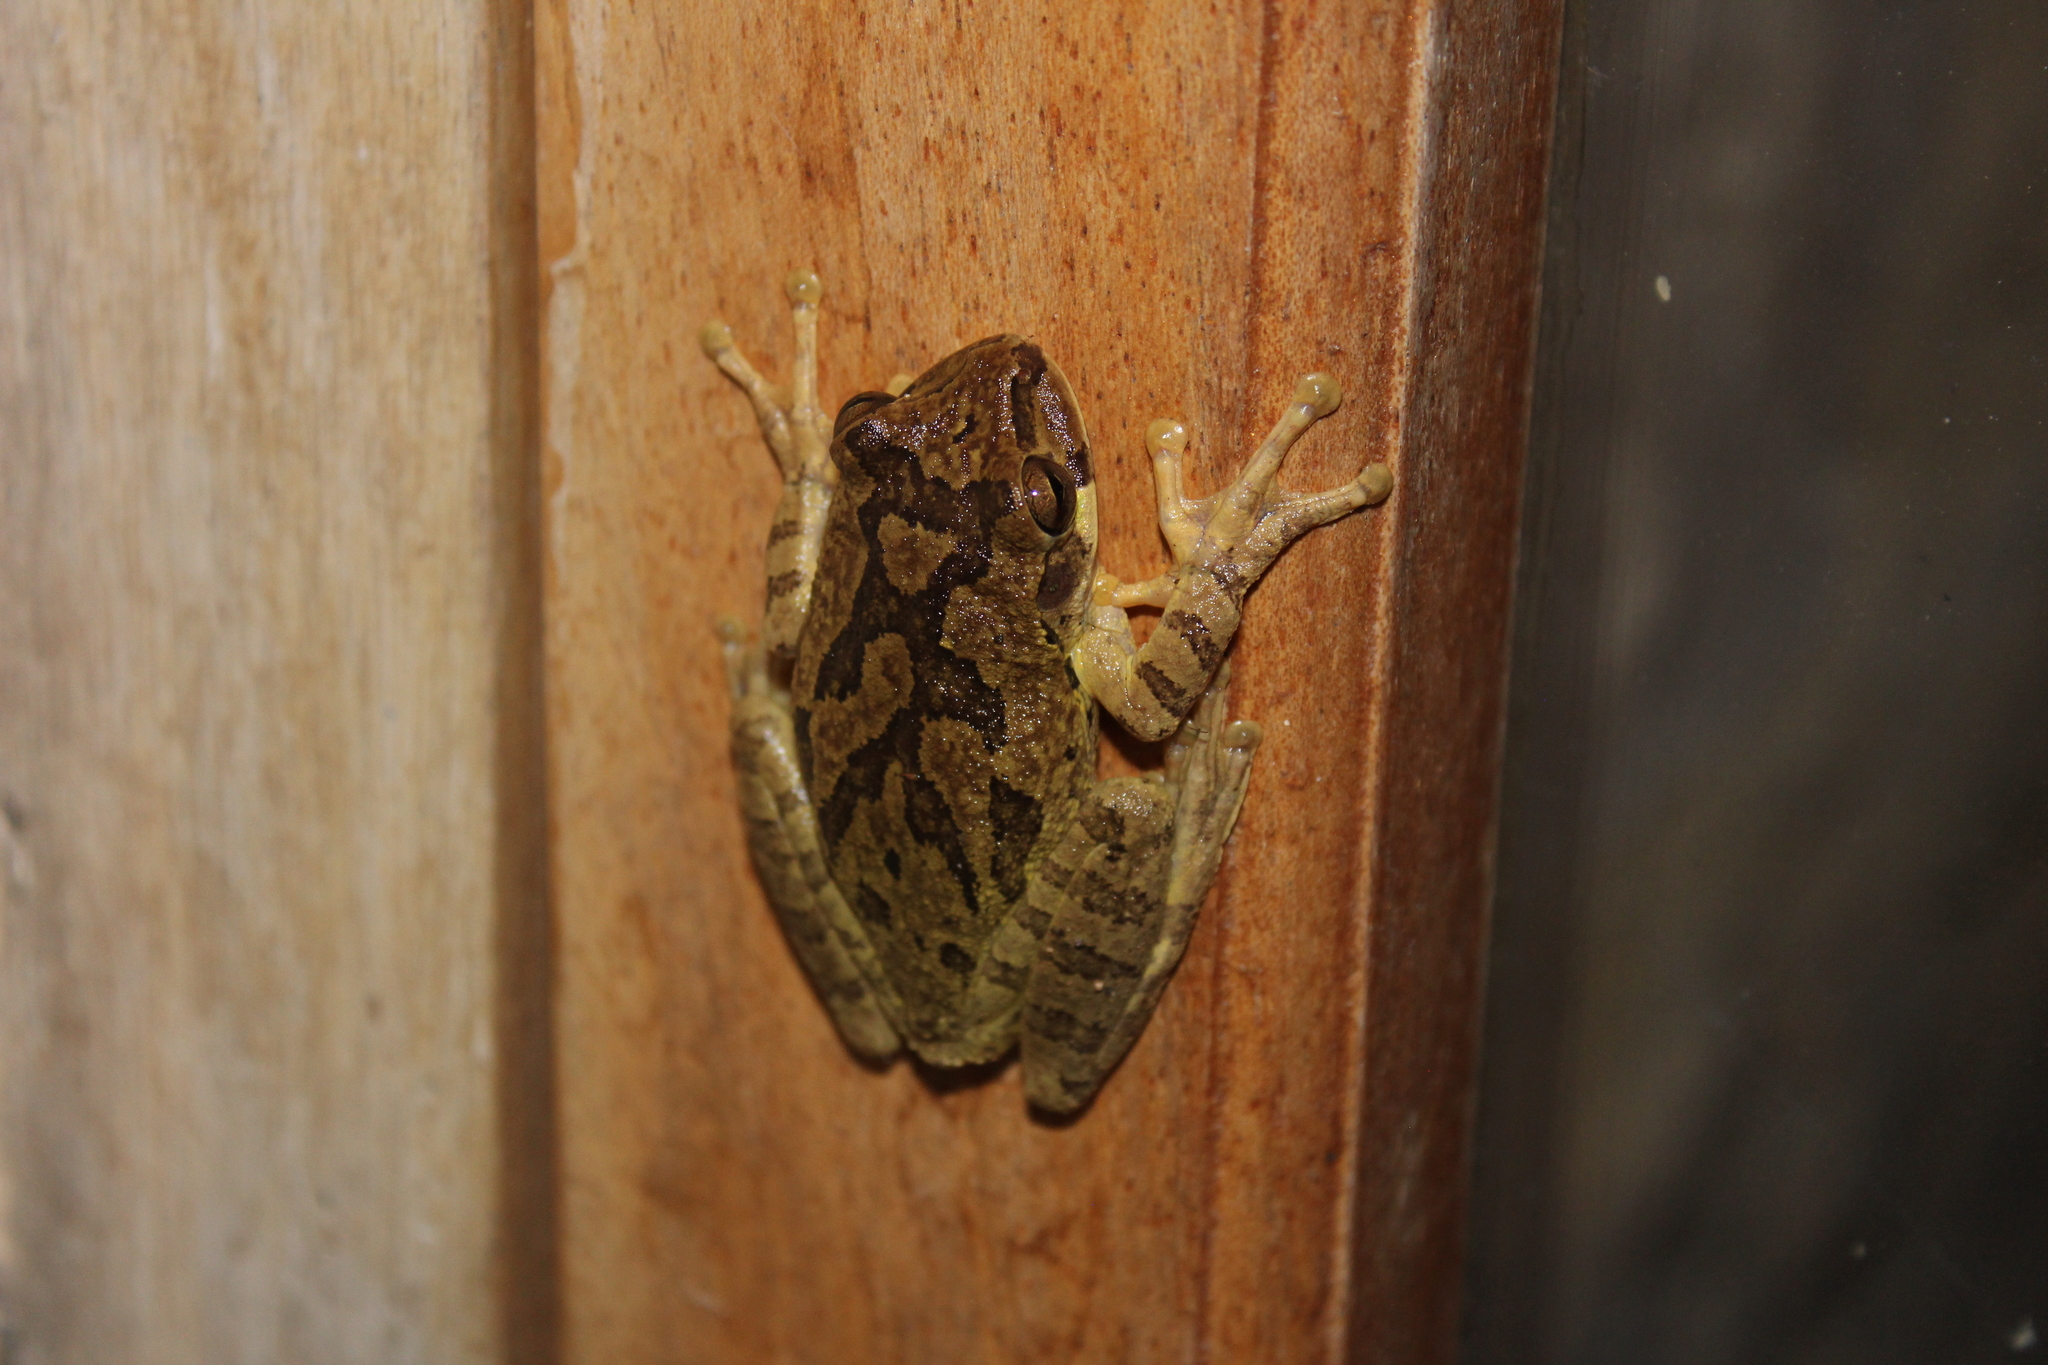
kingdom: Animalia
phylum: Chordata
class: Amphibia
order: Anura
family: Hylidae
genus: Smilisca
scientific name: Smilisca baudinii
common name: Mexican smilisca
